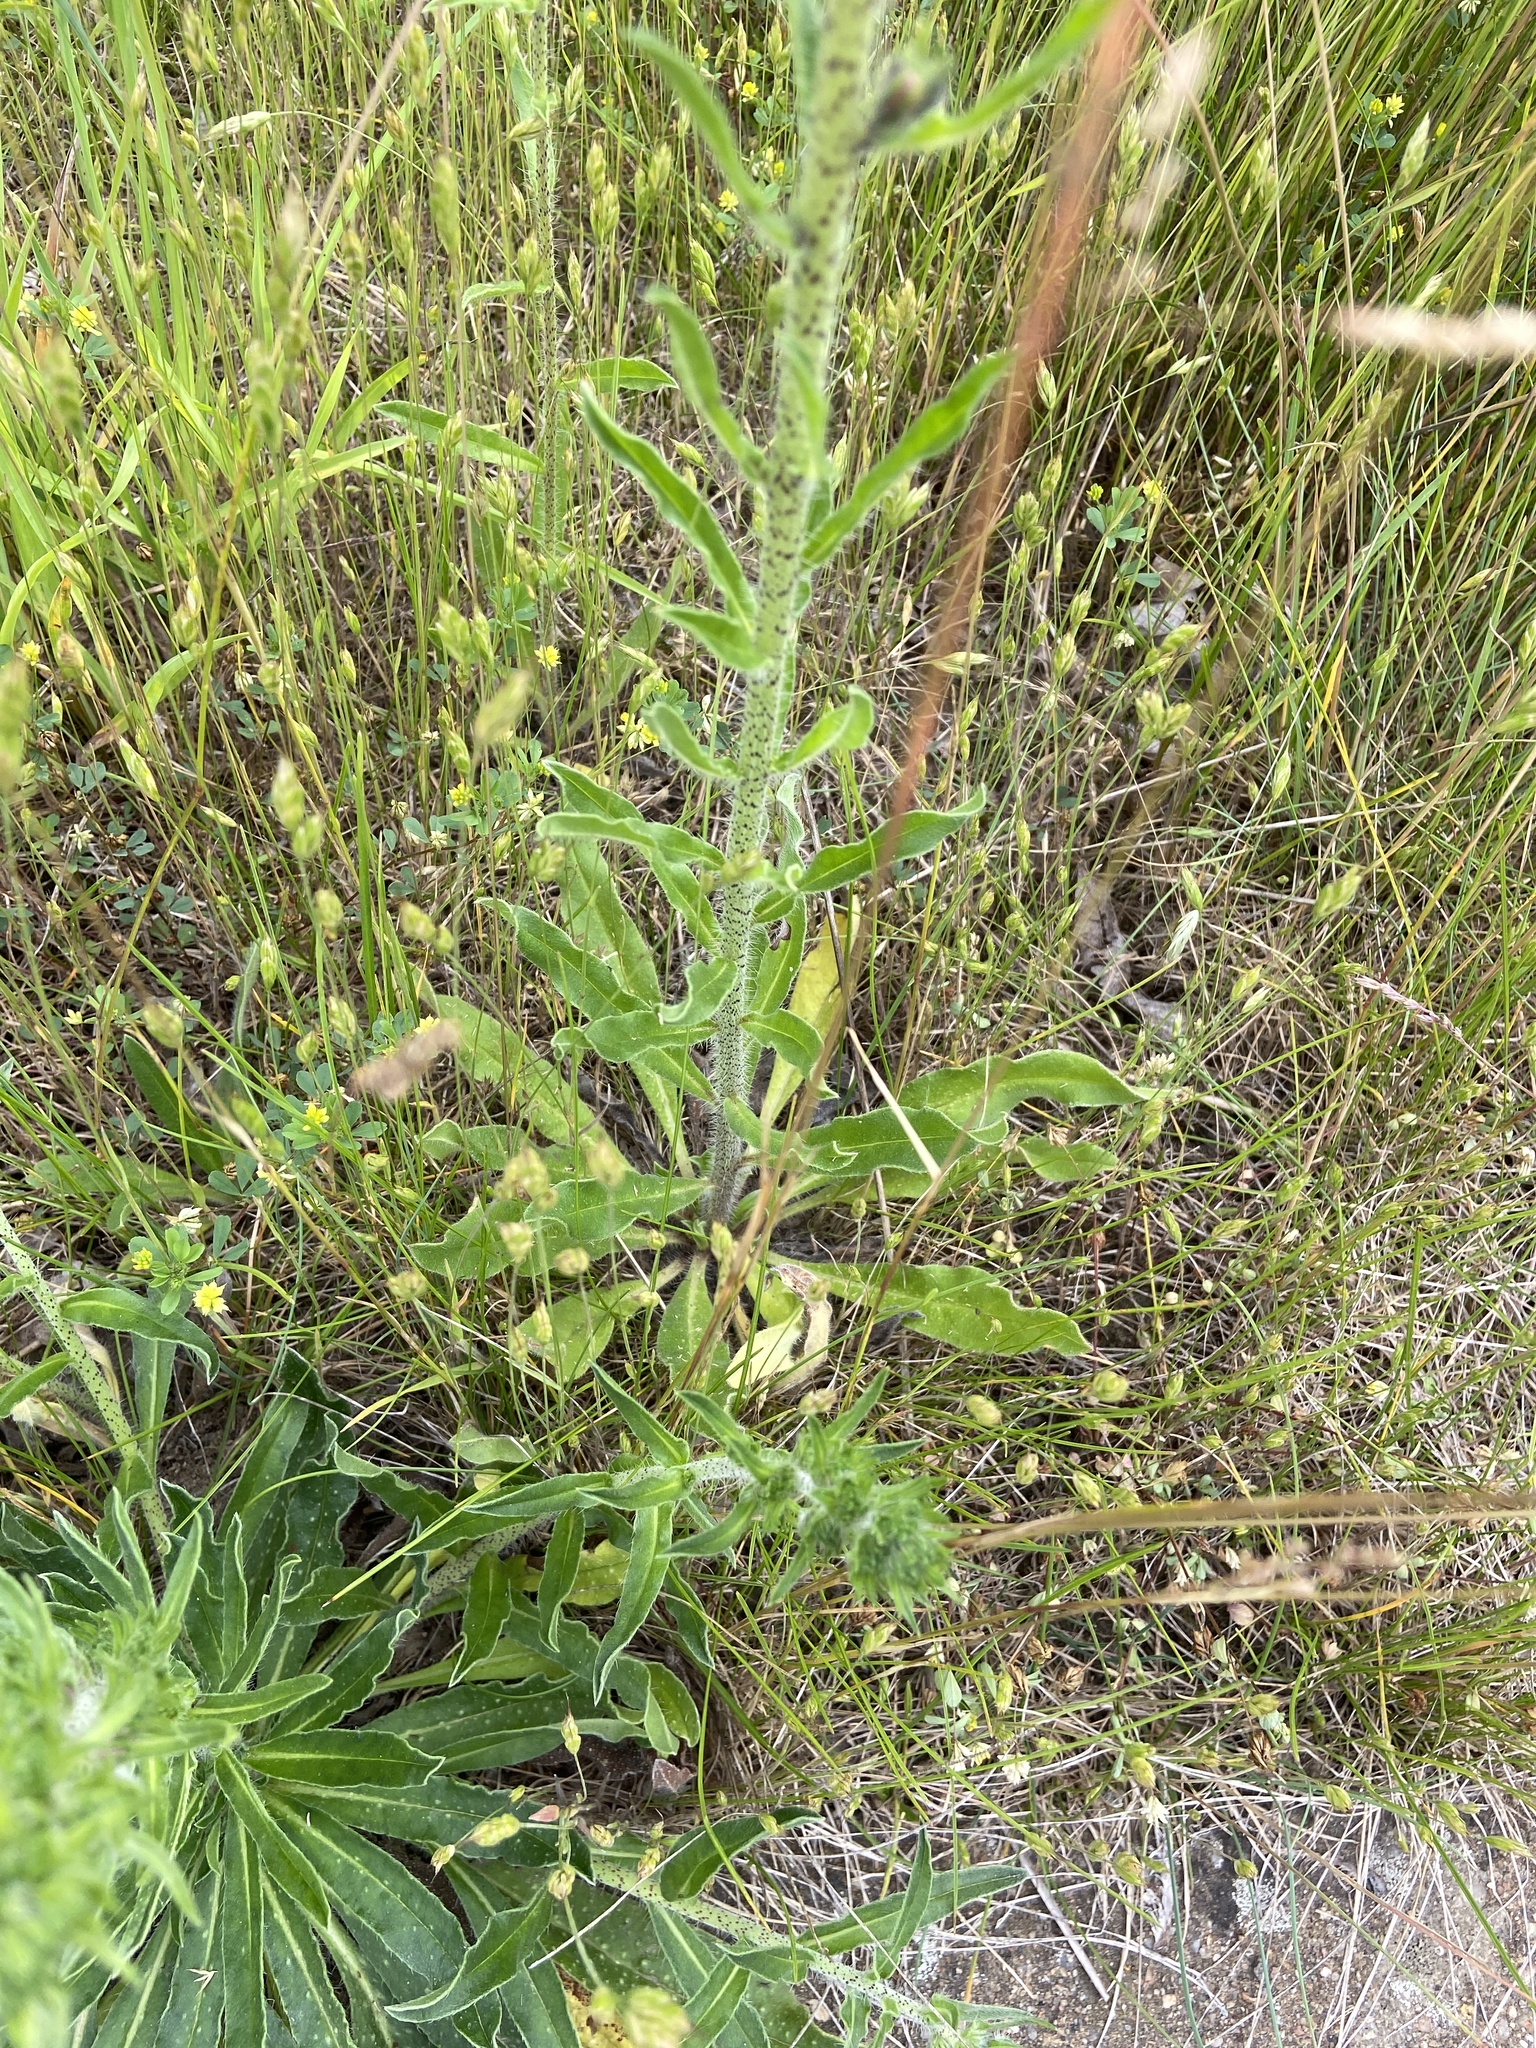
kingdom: Plantae
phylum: Tracheophyta
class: Magnoliopsida
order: Boraginales
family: Boraginaceae
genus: Echium
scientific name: Echium vulgare
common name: Common viper's bugloss
